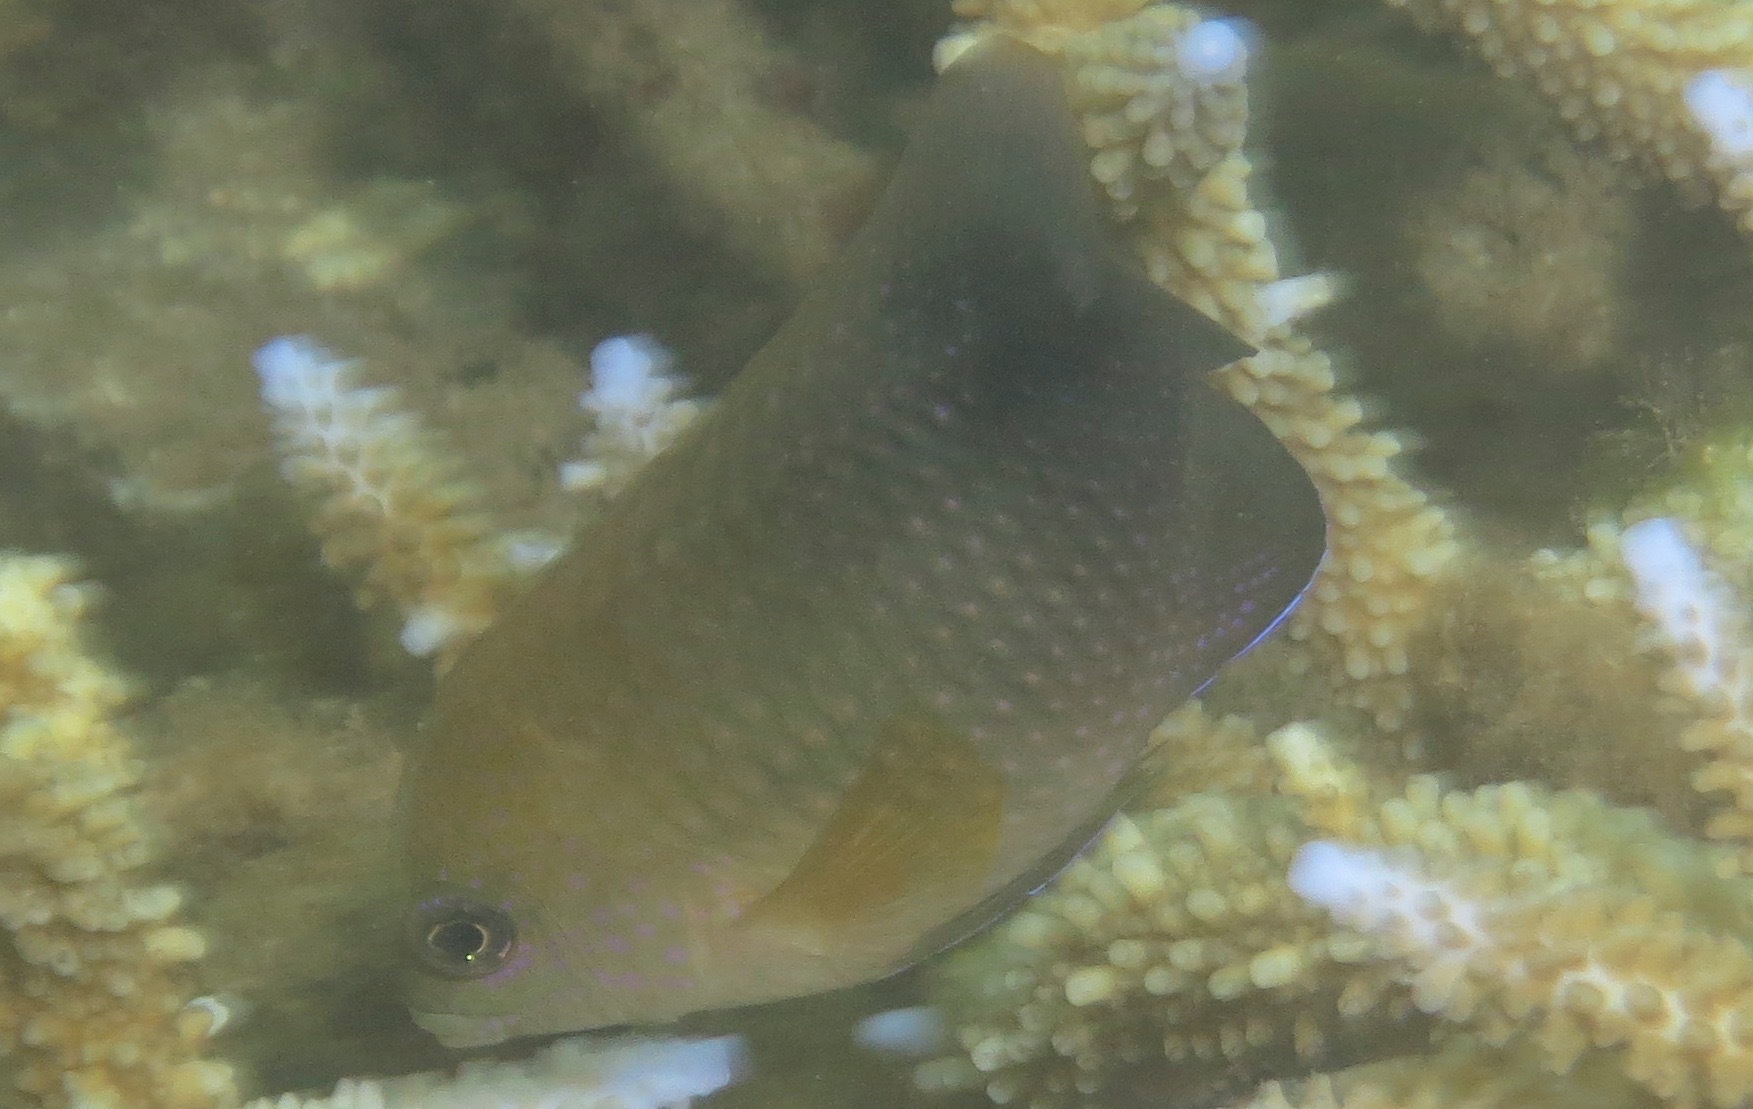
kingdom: Animalia
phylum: Chordata
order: Perciformes
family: Pomacentridae
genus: Stegastes
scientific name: Stegastes nigricans
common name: Dusky gregory
